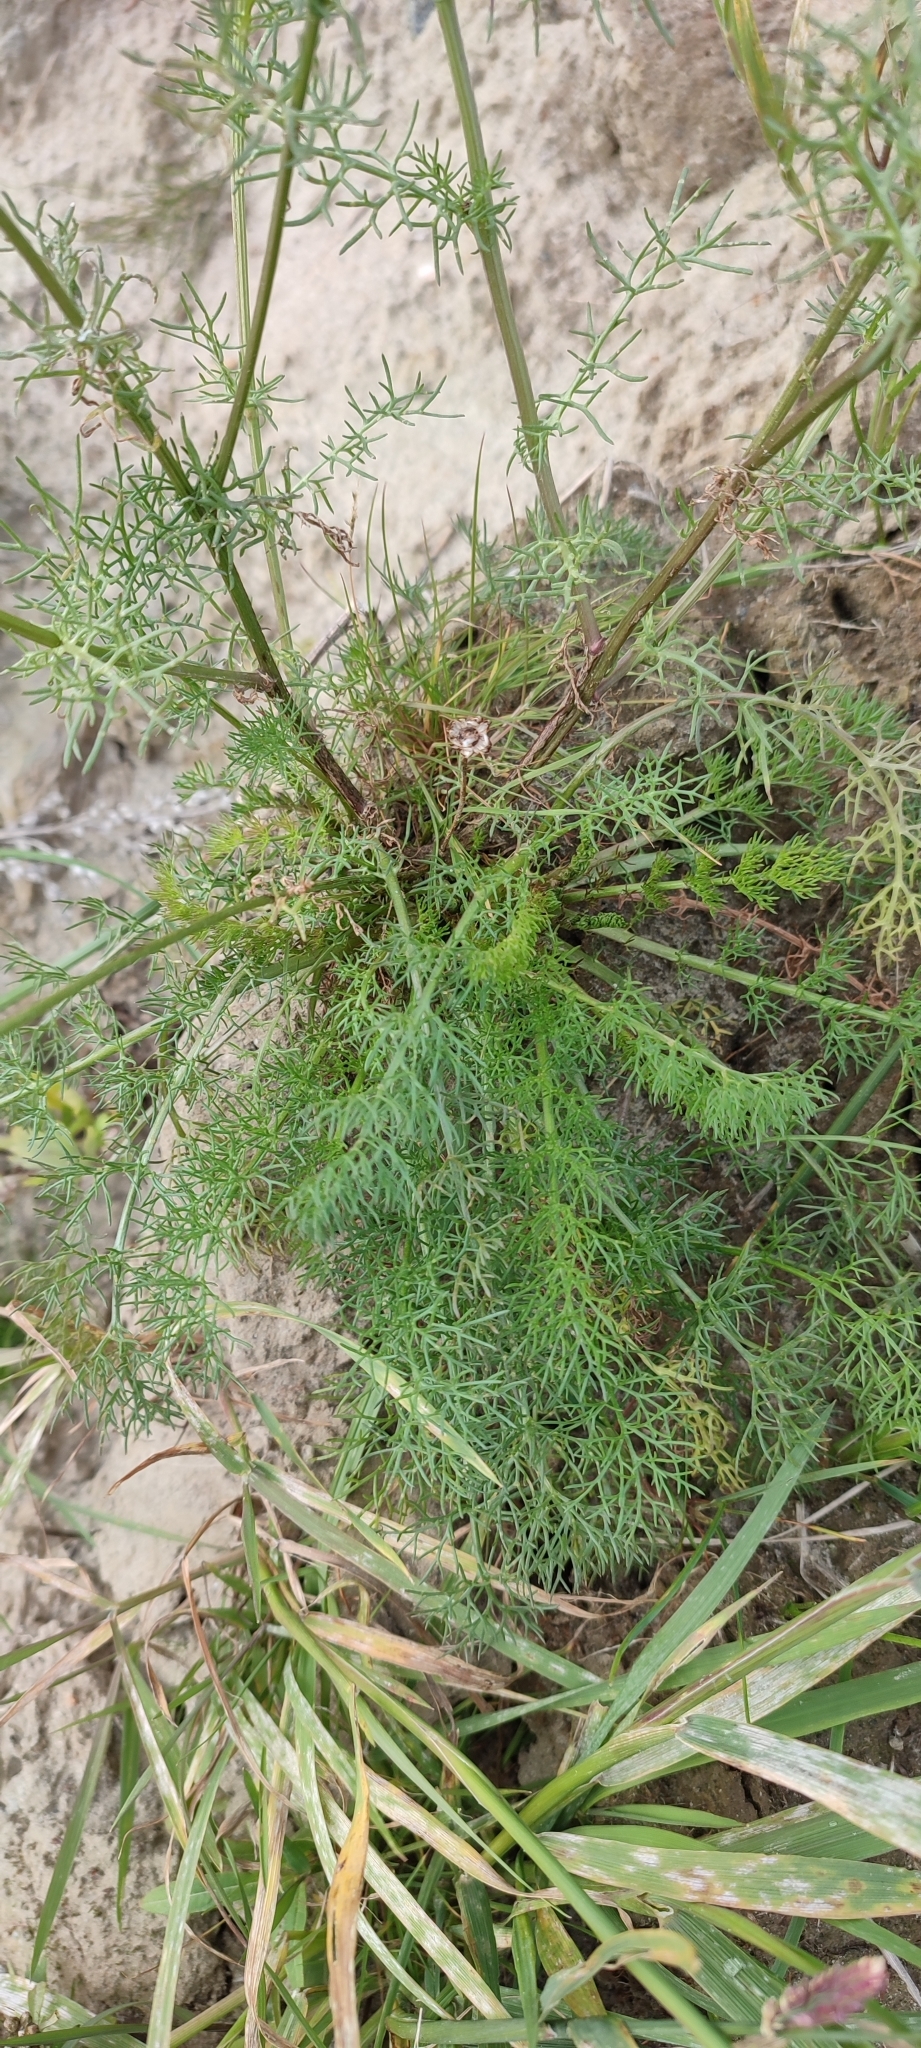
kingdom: Plantae
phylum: Tracheophyta
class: Magnoliopsida
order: Asterales
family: Asteraceae
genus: Tripleurospermum
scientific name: Tripleurospermum hookeri
